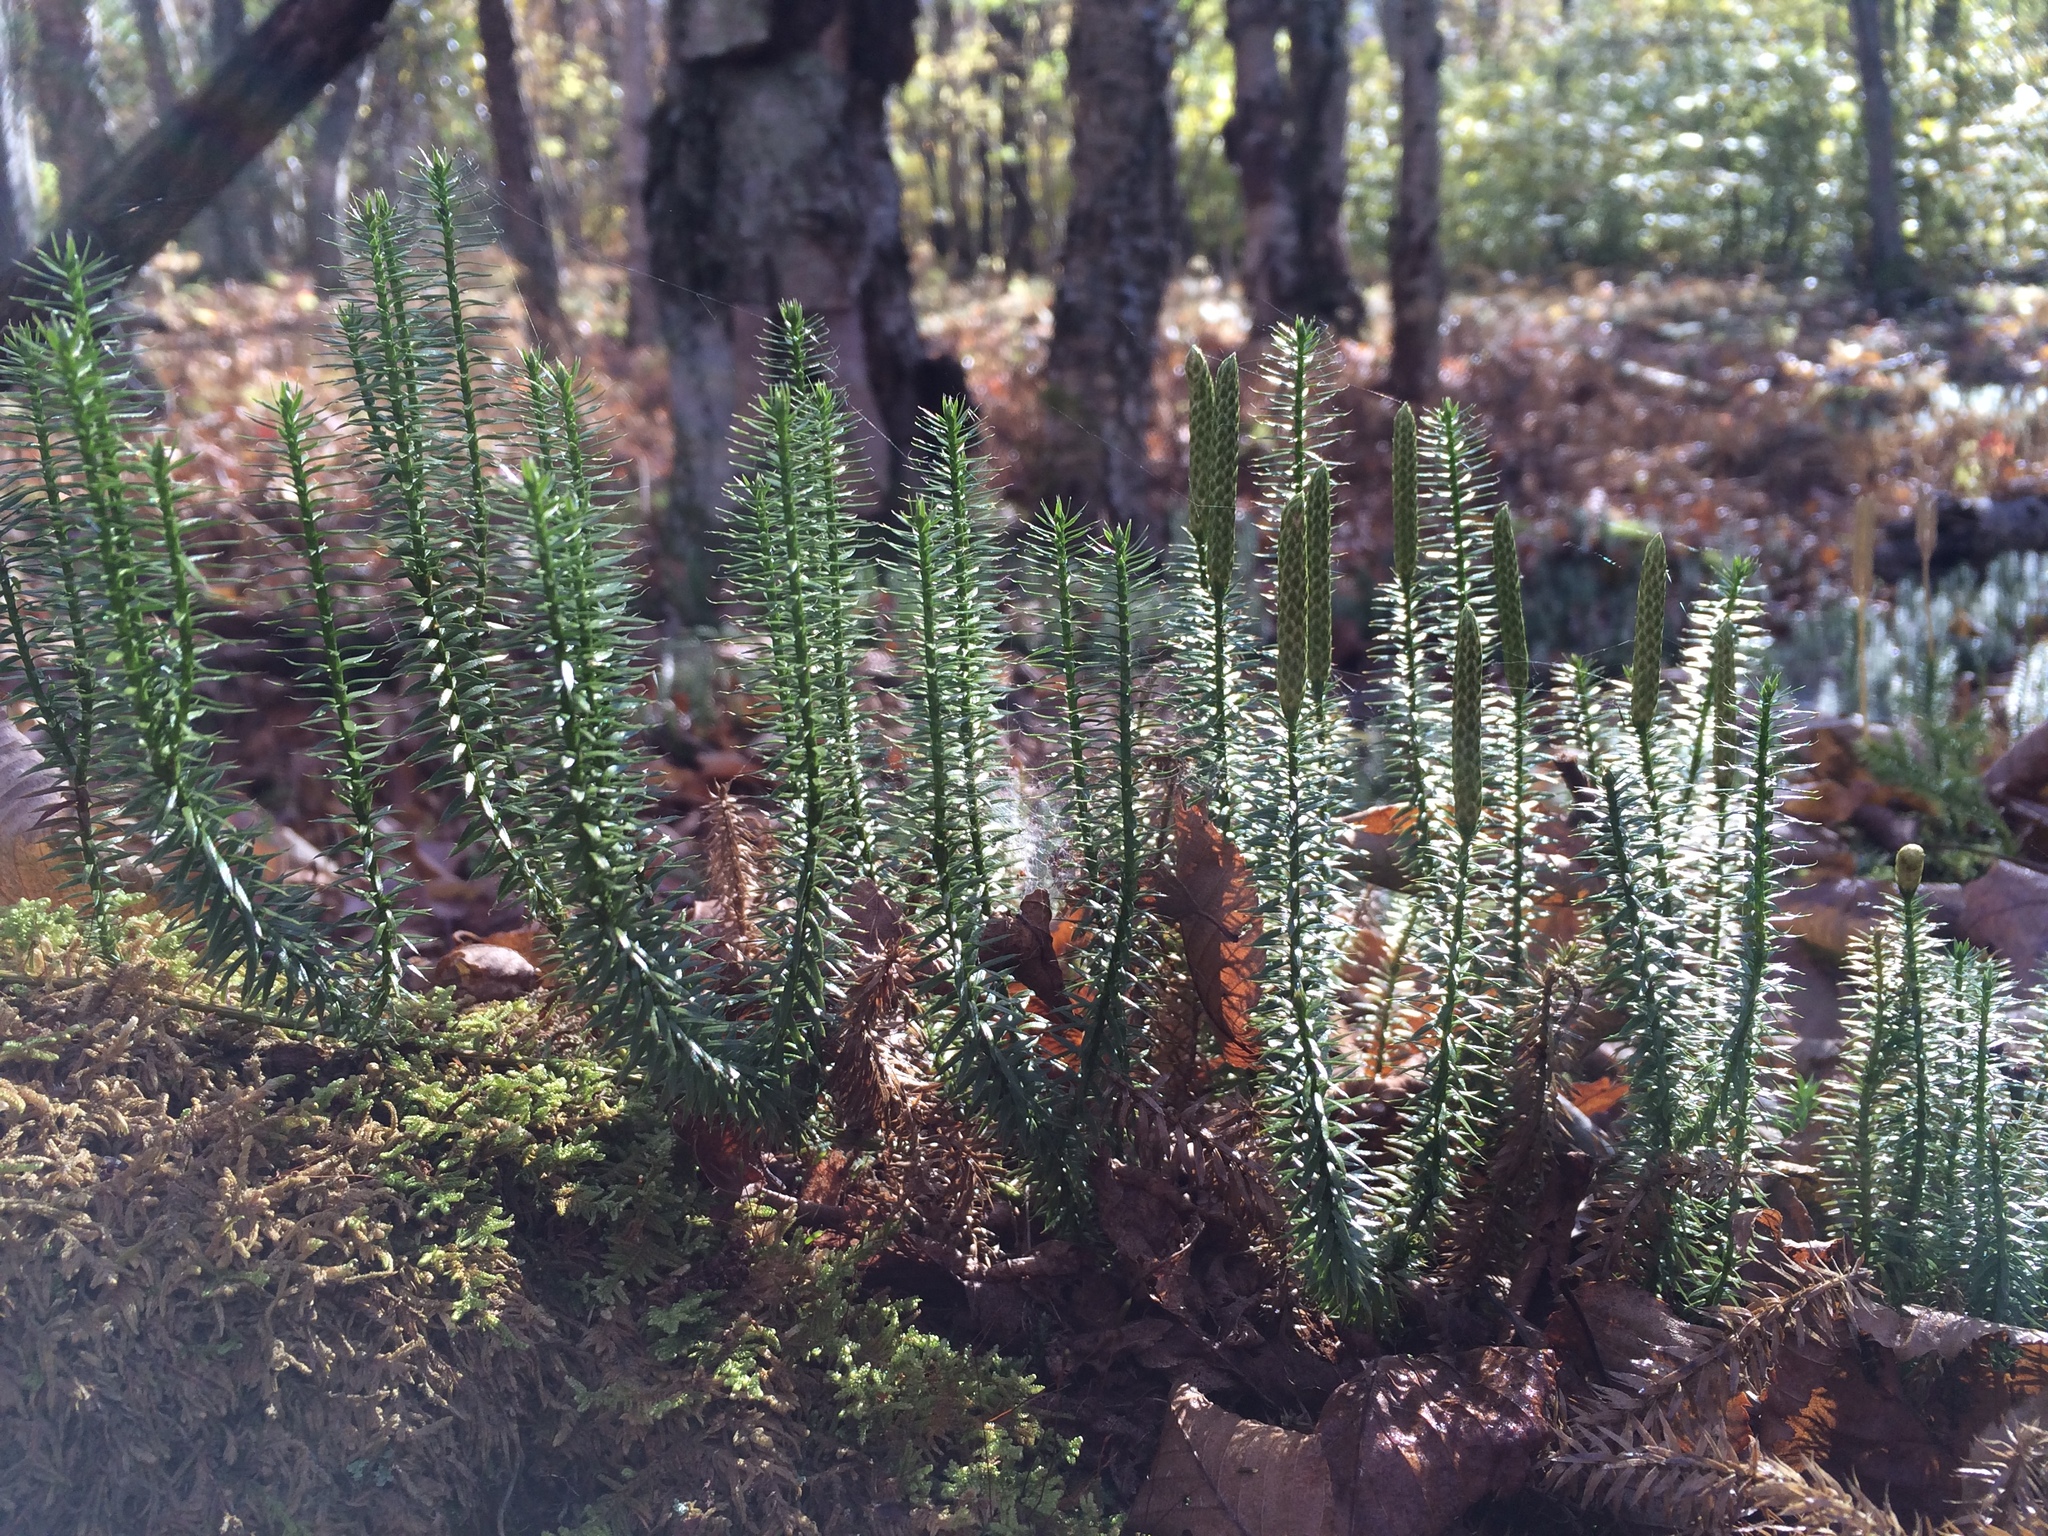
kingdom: Plantae
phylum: Tracheophyta
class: Lycopodiopsida
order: Lycopodiales
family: Lycopodiaceae
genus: Spinulum
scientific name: Spinulum annotinum
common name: Interrupted club-moss
